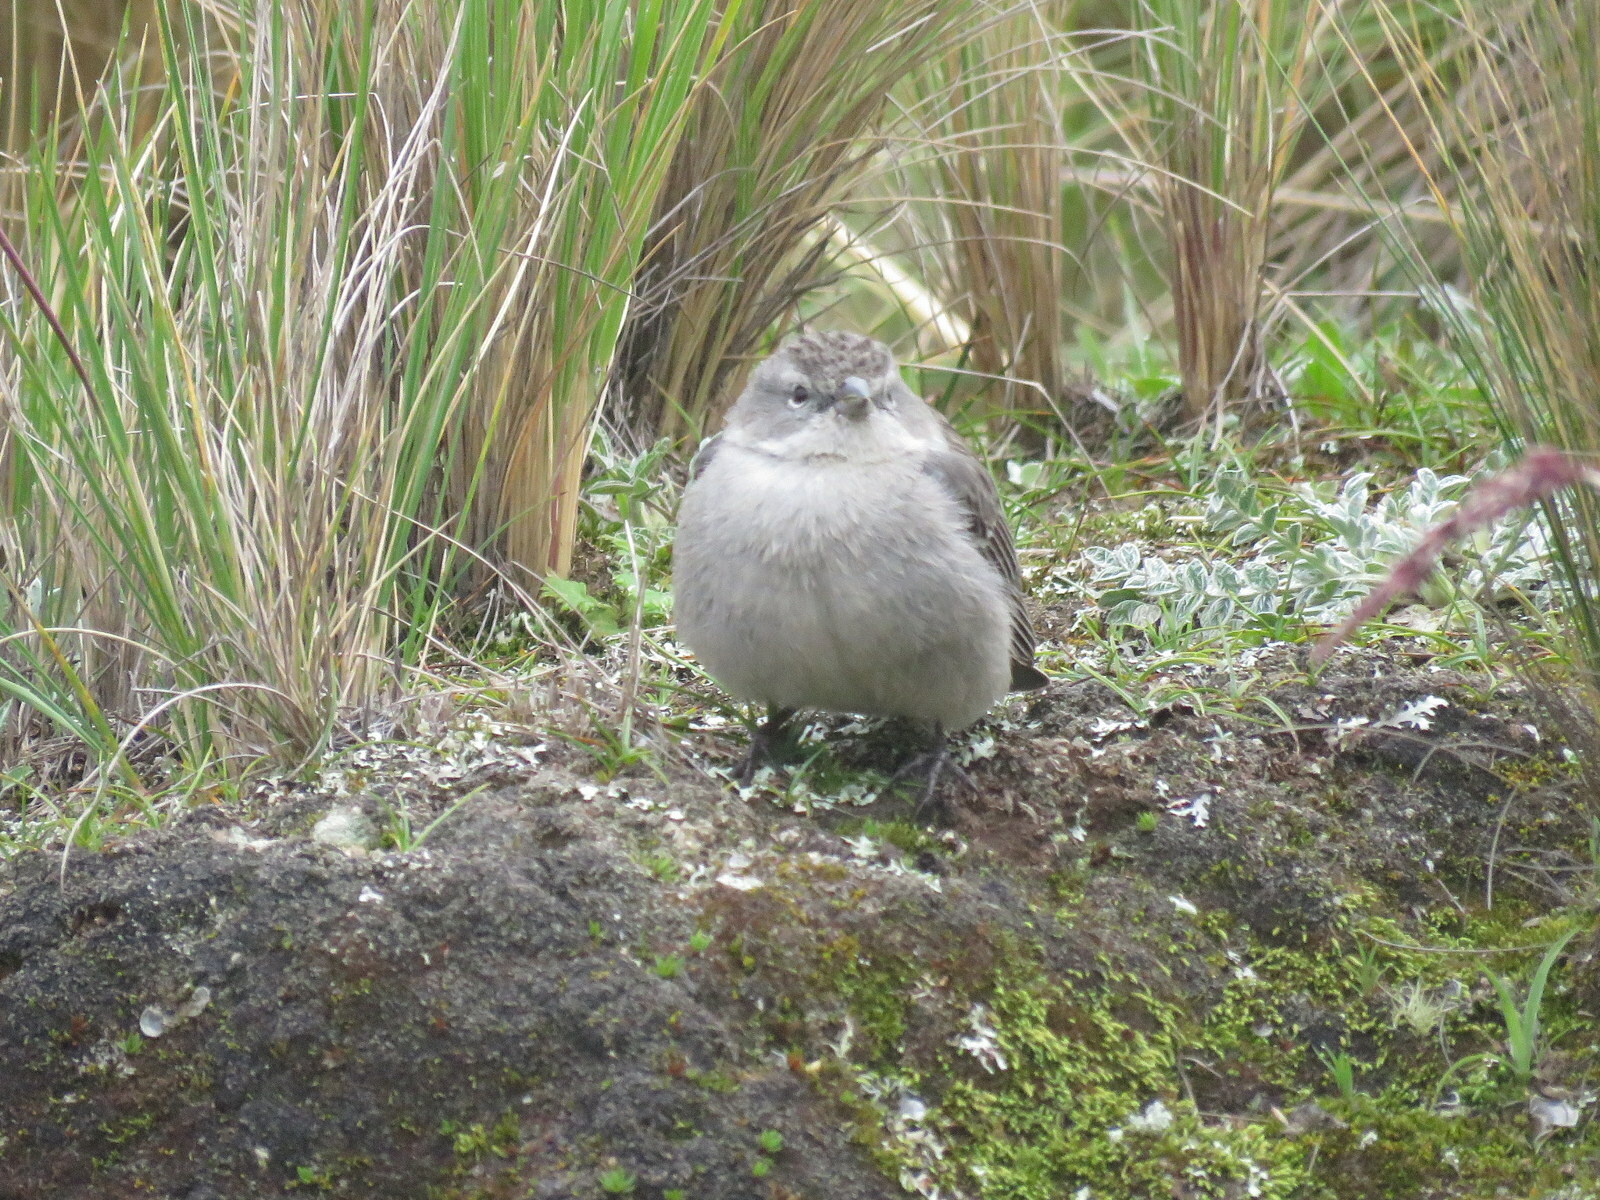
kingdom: Animalia
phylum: Chordata
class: Aves
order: Passeriformes
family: Thraupidae
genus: Geospizopsis
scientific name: Geospizopsis plebejus
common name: Ash-breasted sierra-finch
